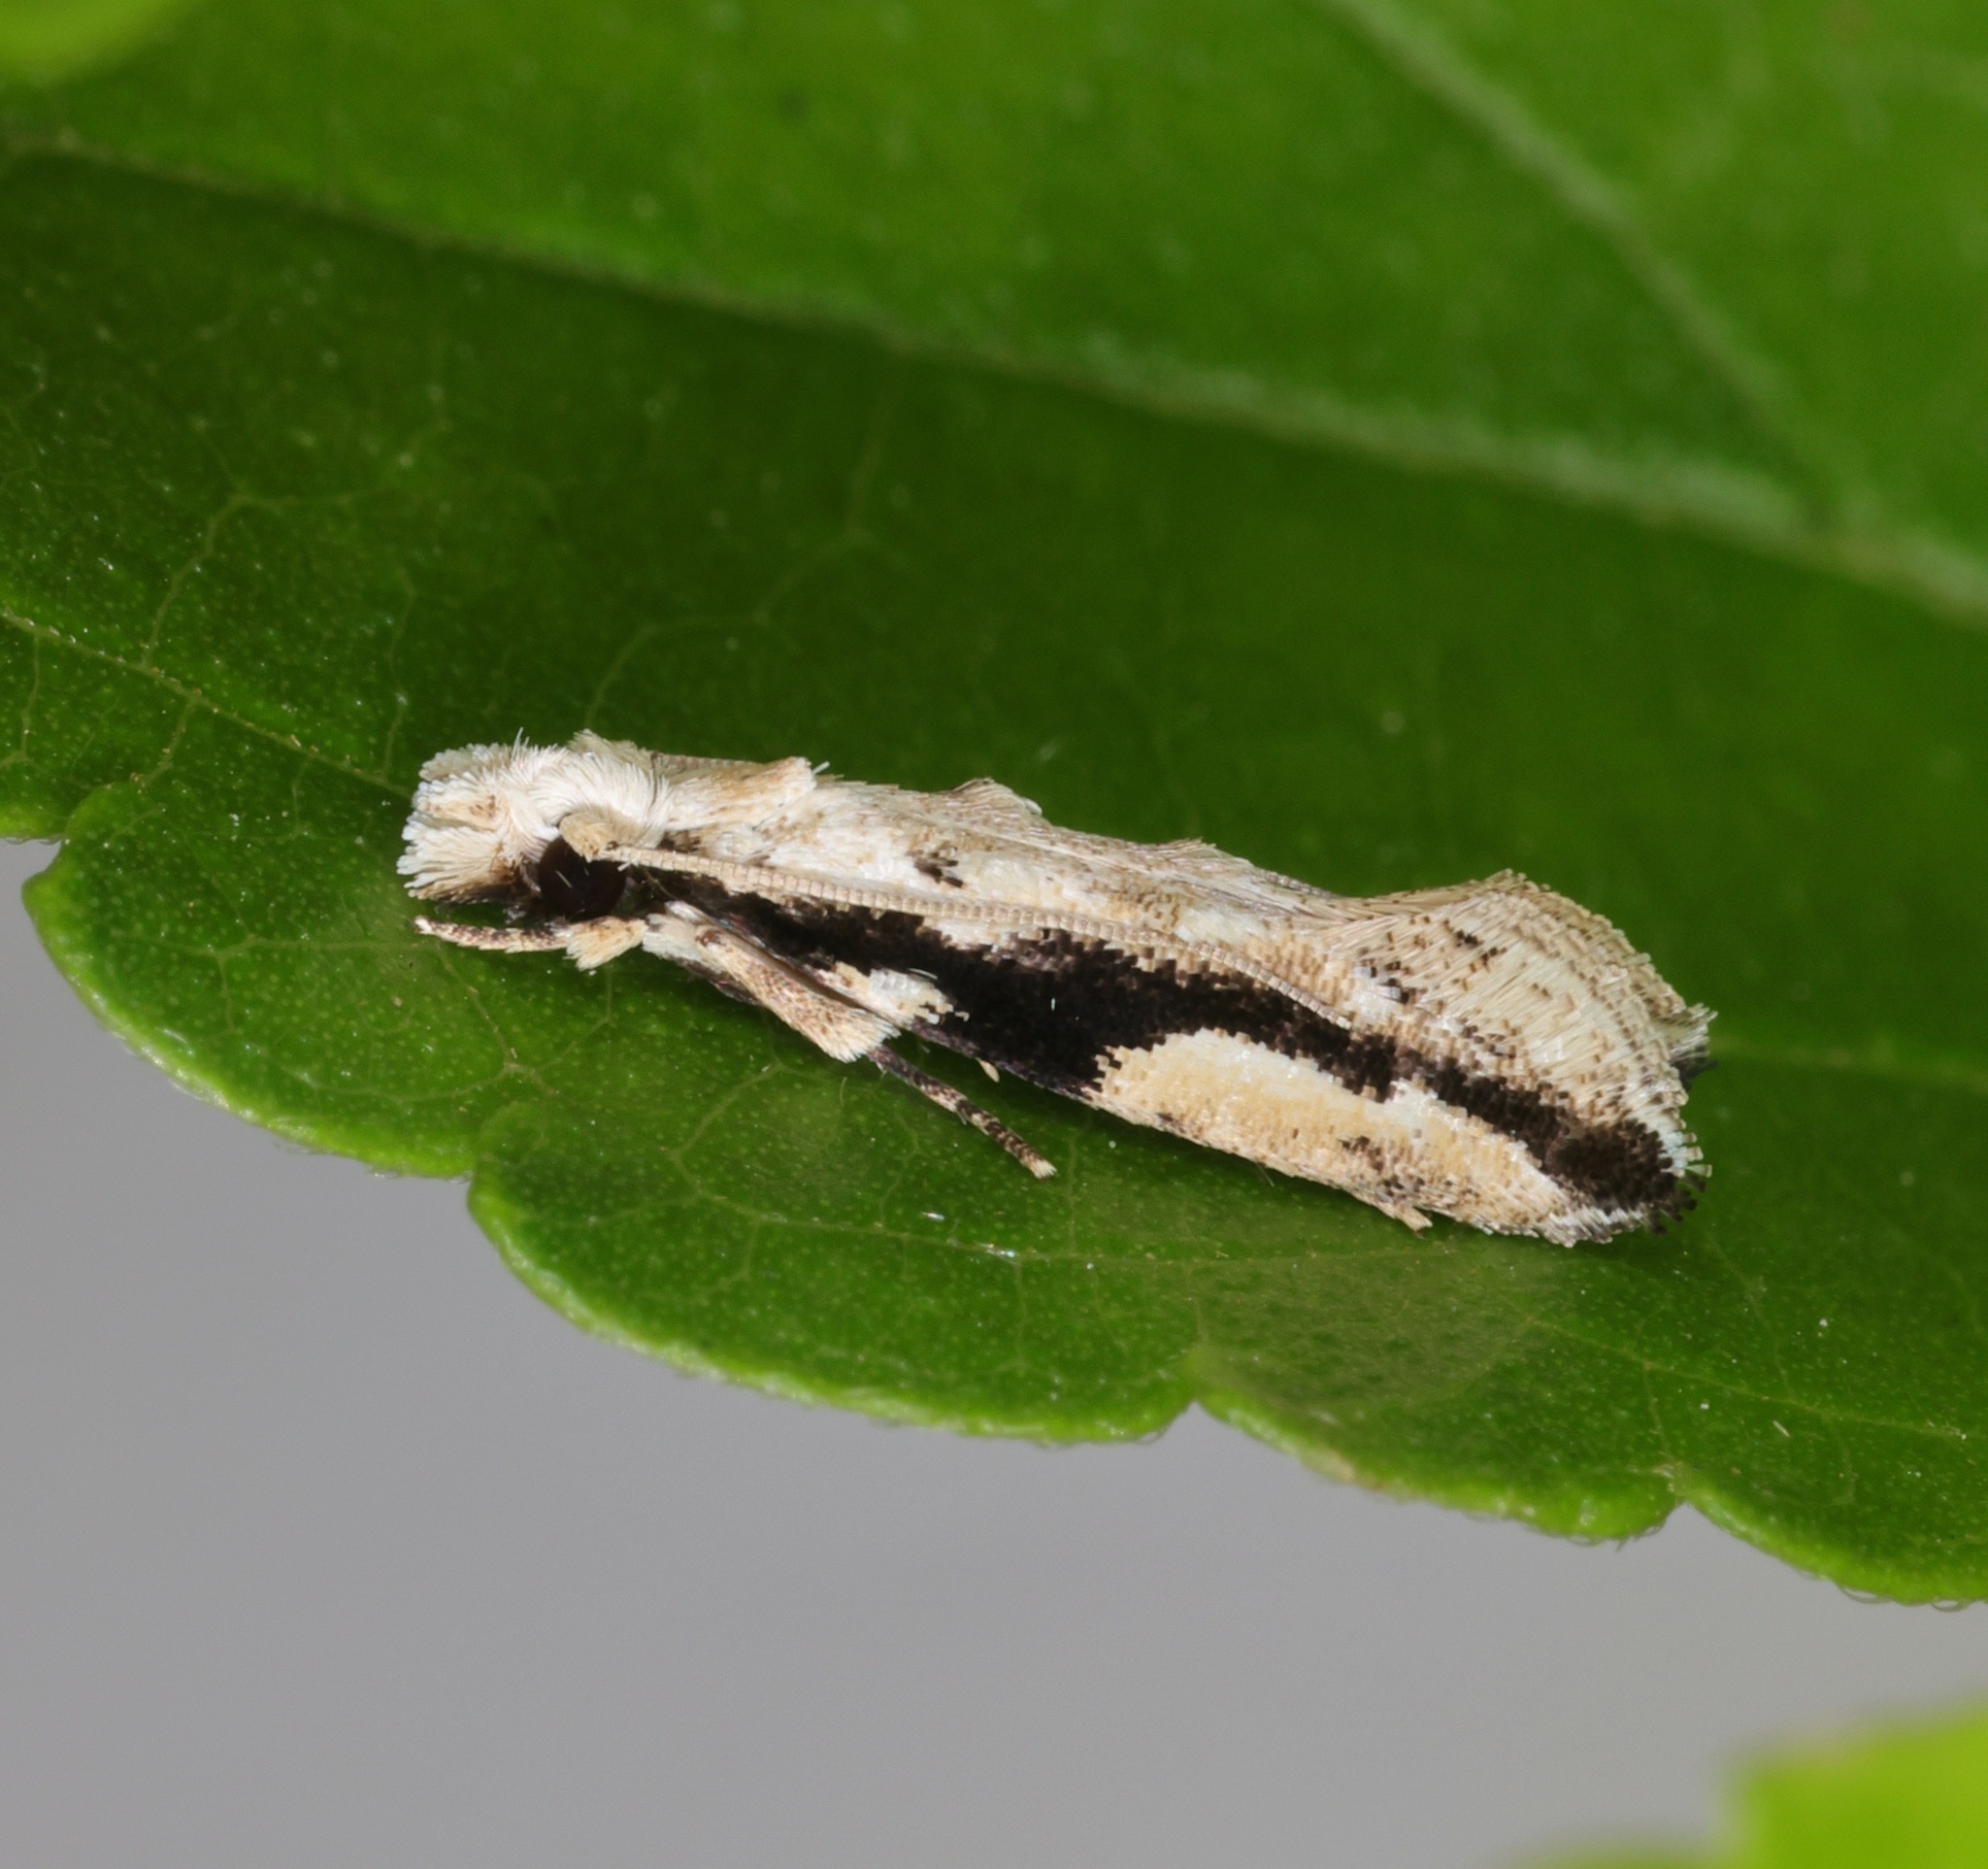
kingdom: Animalia
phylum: Arthropoda
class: Insecta
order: Lepidoptera
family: Tineidae
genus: Erechthias
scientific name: Erechthias atririvis
